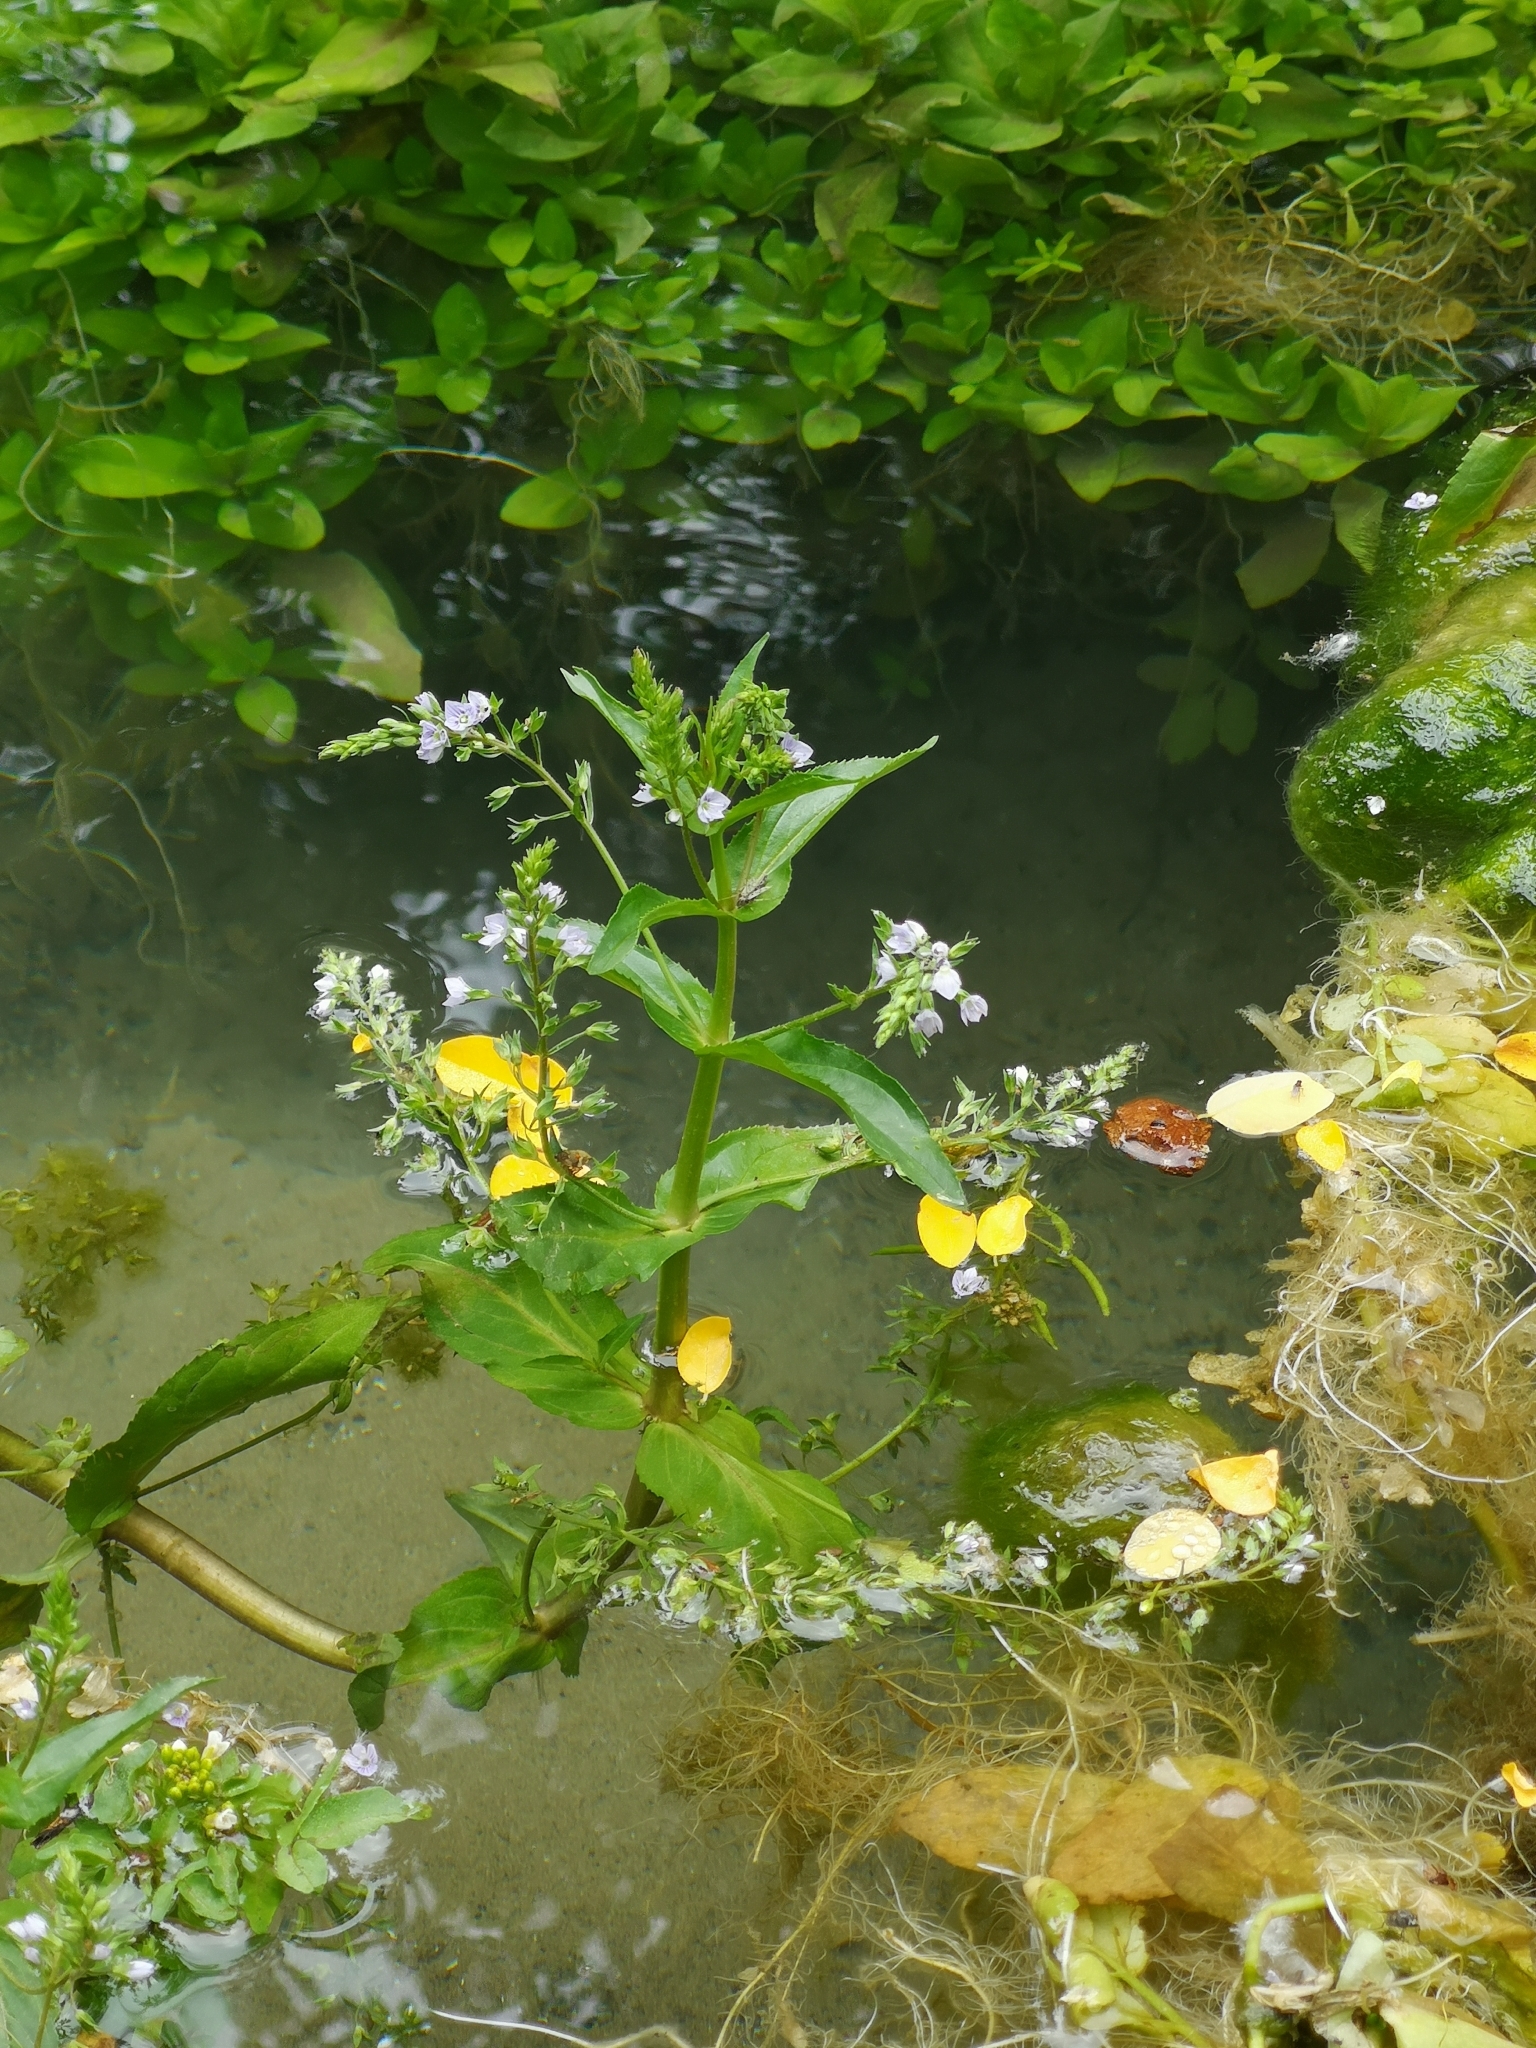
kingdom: Plantae
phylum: Tracheophyta
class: Magnoliopsida
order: Lamiales
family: Plantaginaceae
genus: Veronica
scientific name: Veronica anagallis-aquatica
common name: Water speedwell
